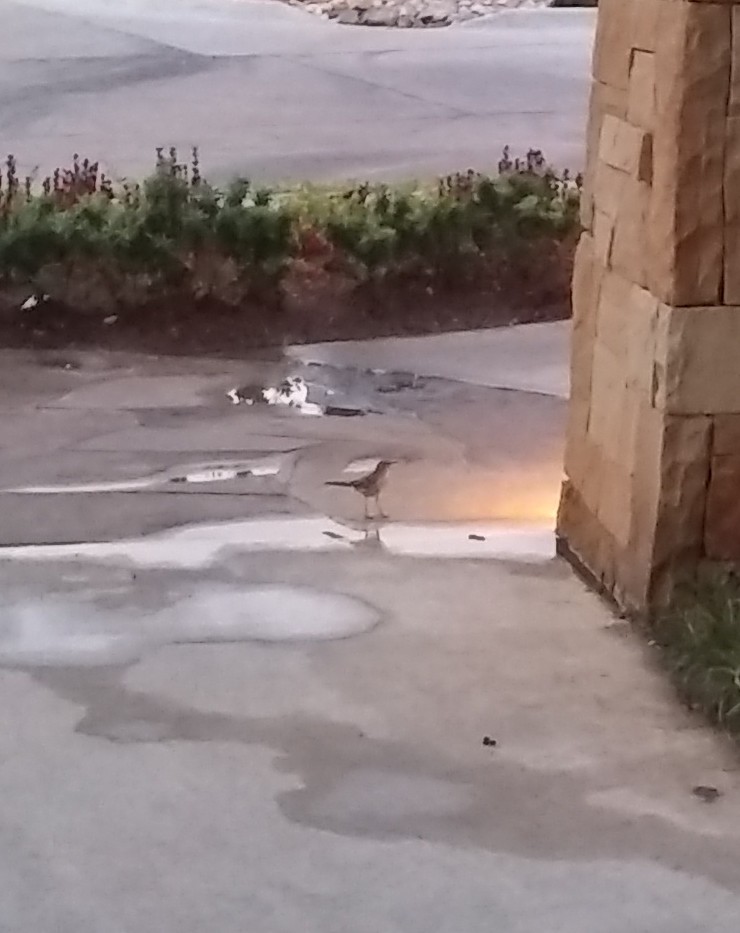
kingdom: Animalia
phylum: Chordata
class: Aves
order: Passeriformes
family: Mimidae
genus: Mimus
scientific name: Mimus polyglottos
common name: Northern mockingbird
